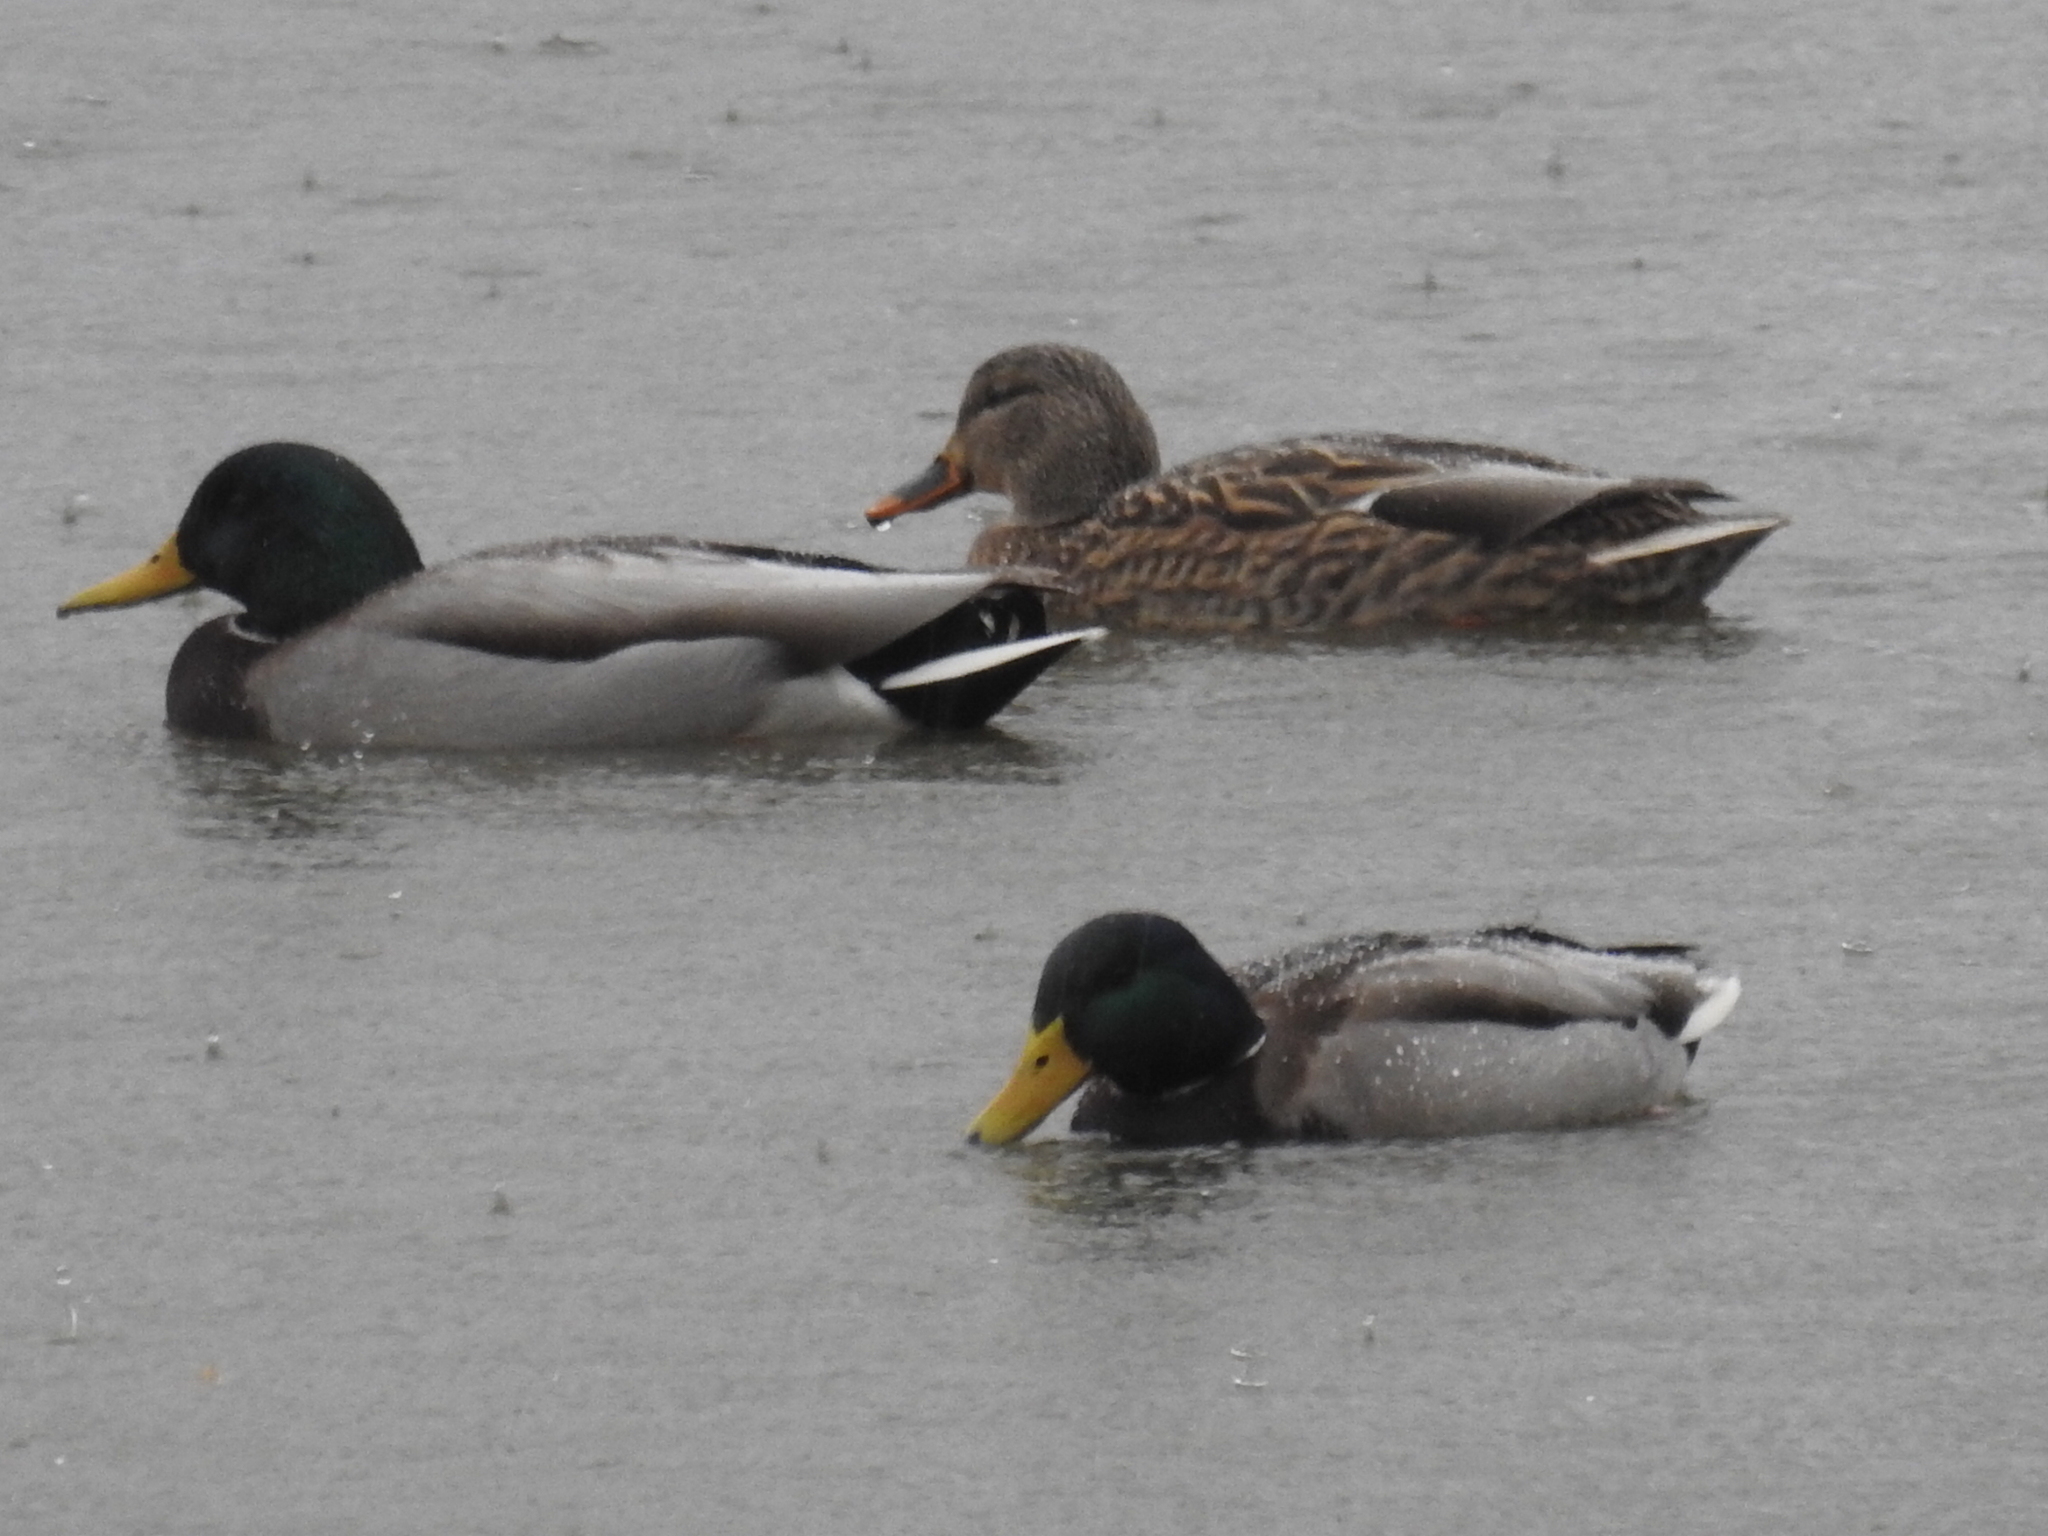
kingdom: Animalia
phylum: Chordata
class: Aves
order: Anseriformes
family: Anatidae
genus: Anas
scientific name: Anas platyrhynchos
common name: Mallard
